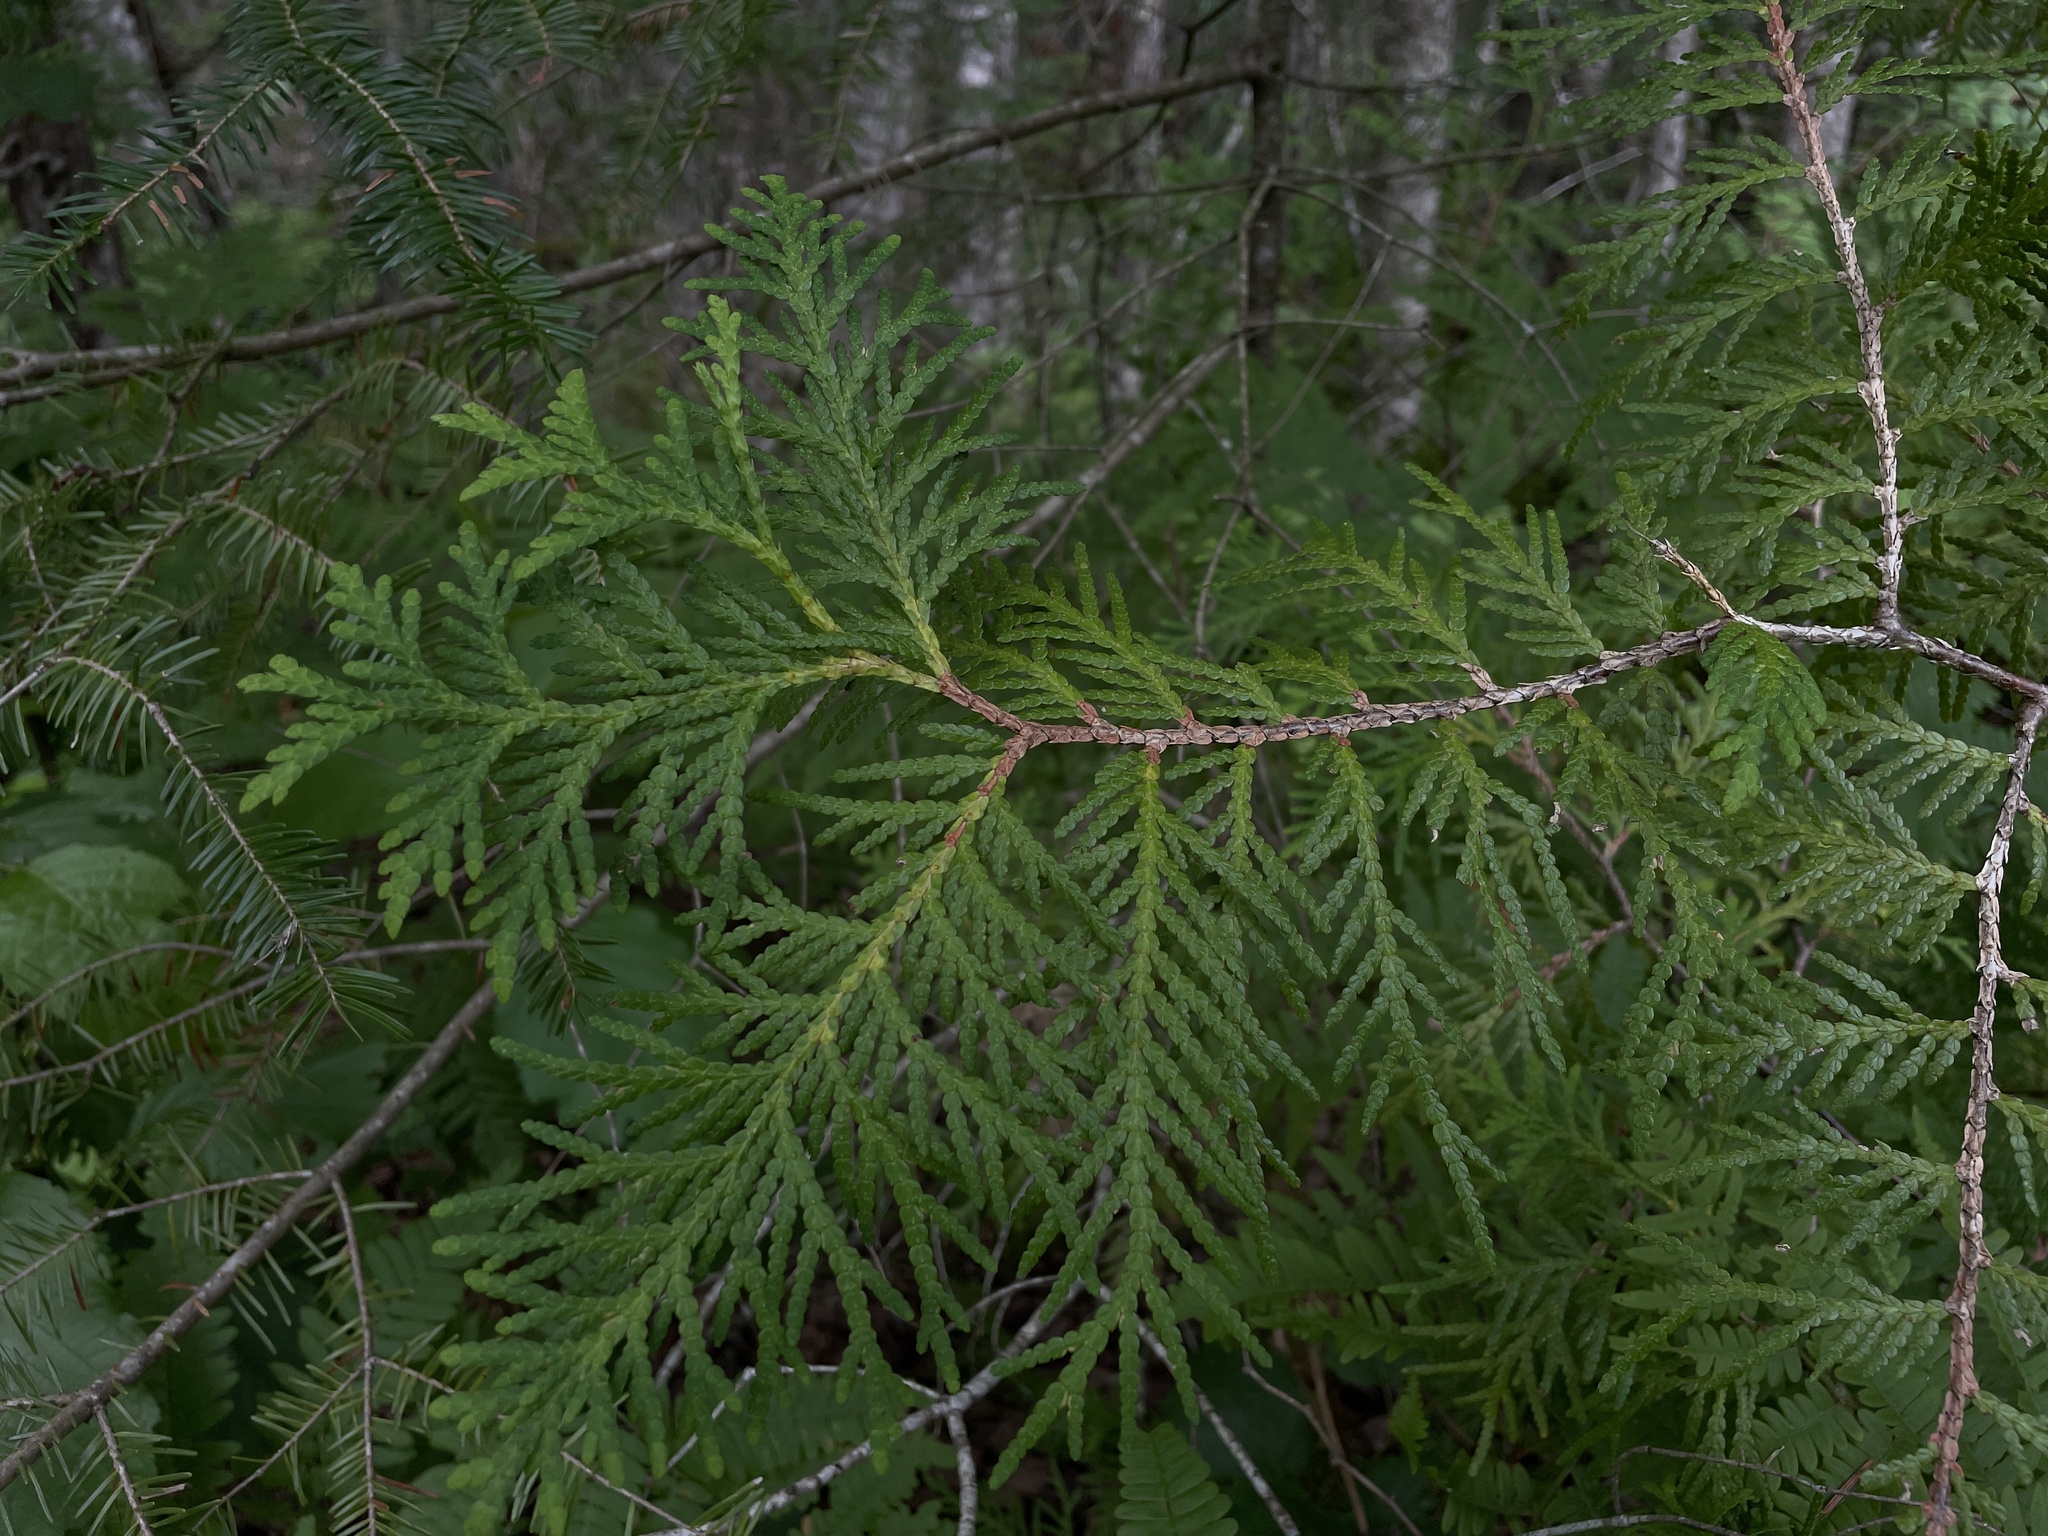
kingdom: Plantae
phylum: Tracheophyta
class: Pinopsida
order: Pinales
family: Cupressaceae
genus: Thuja
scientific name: Thuja occidentalis
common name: Northern white-cedar
